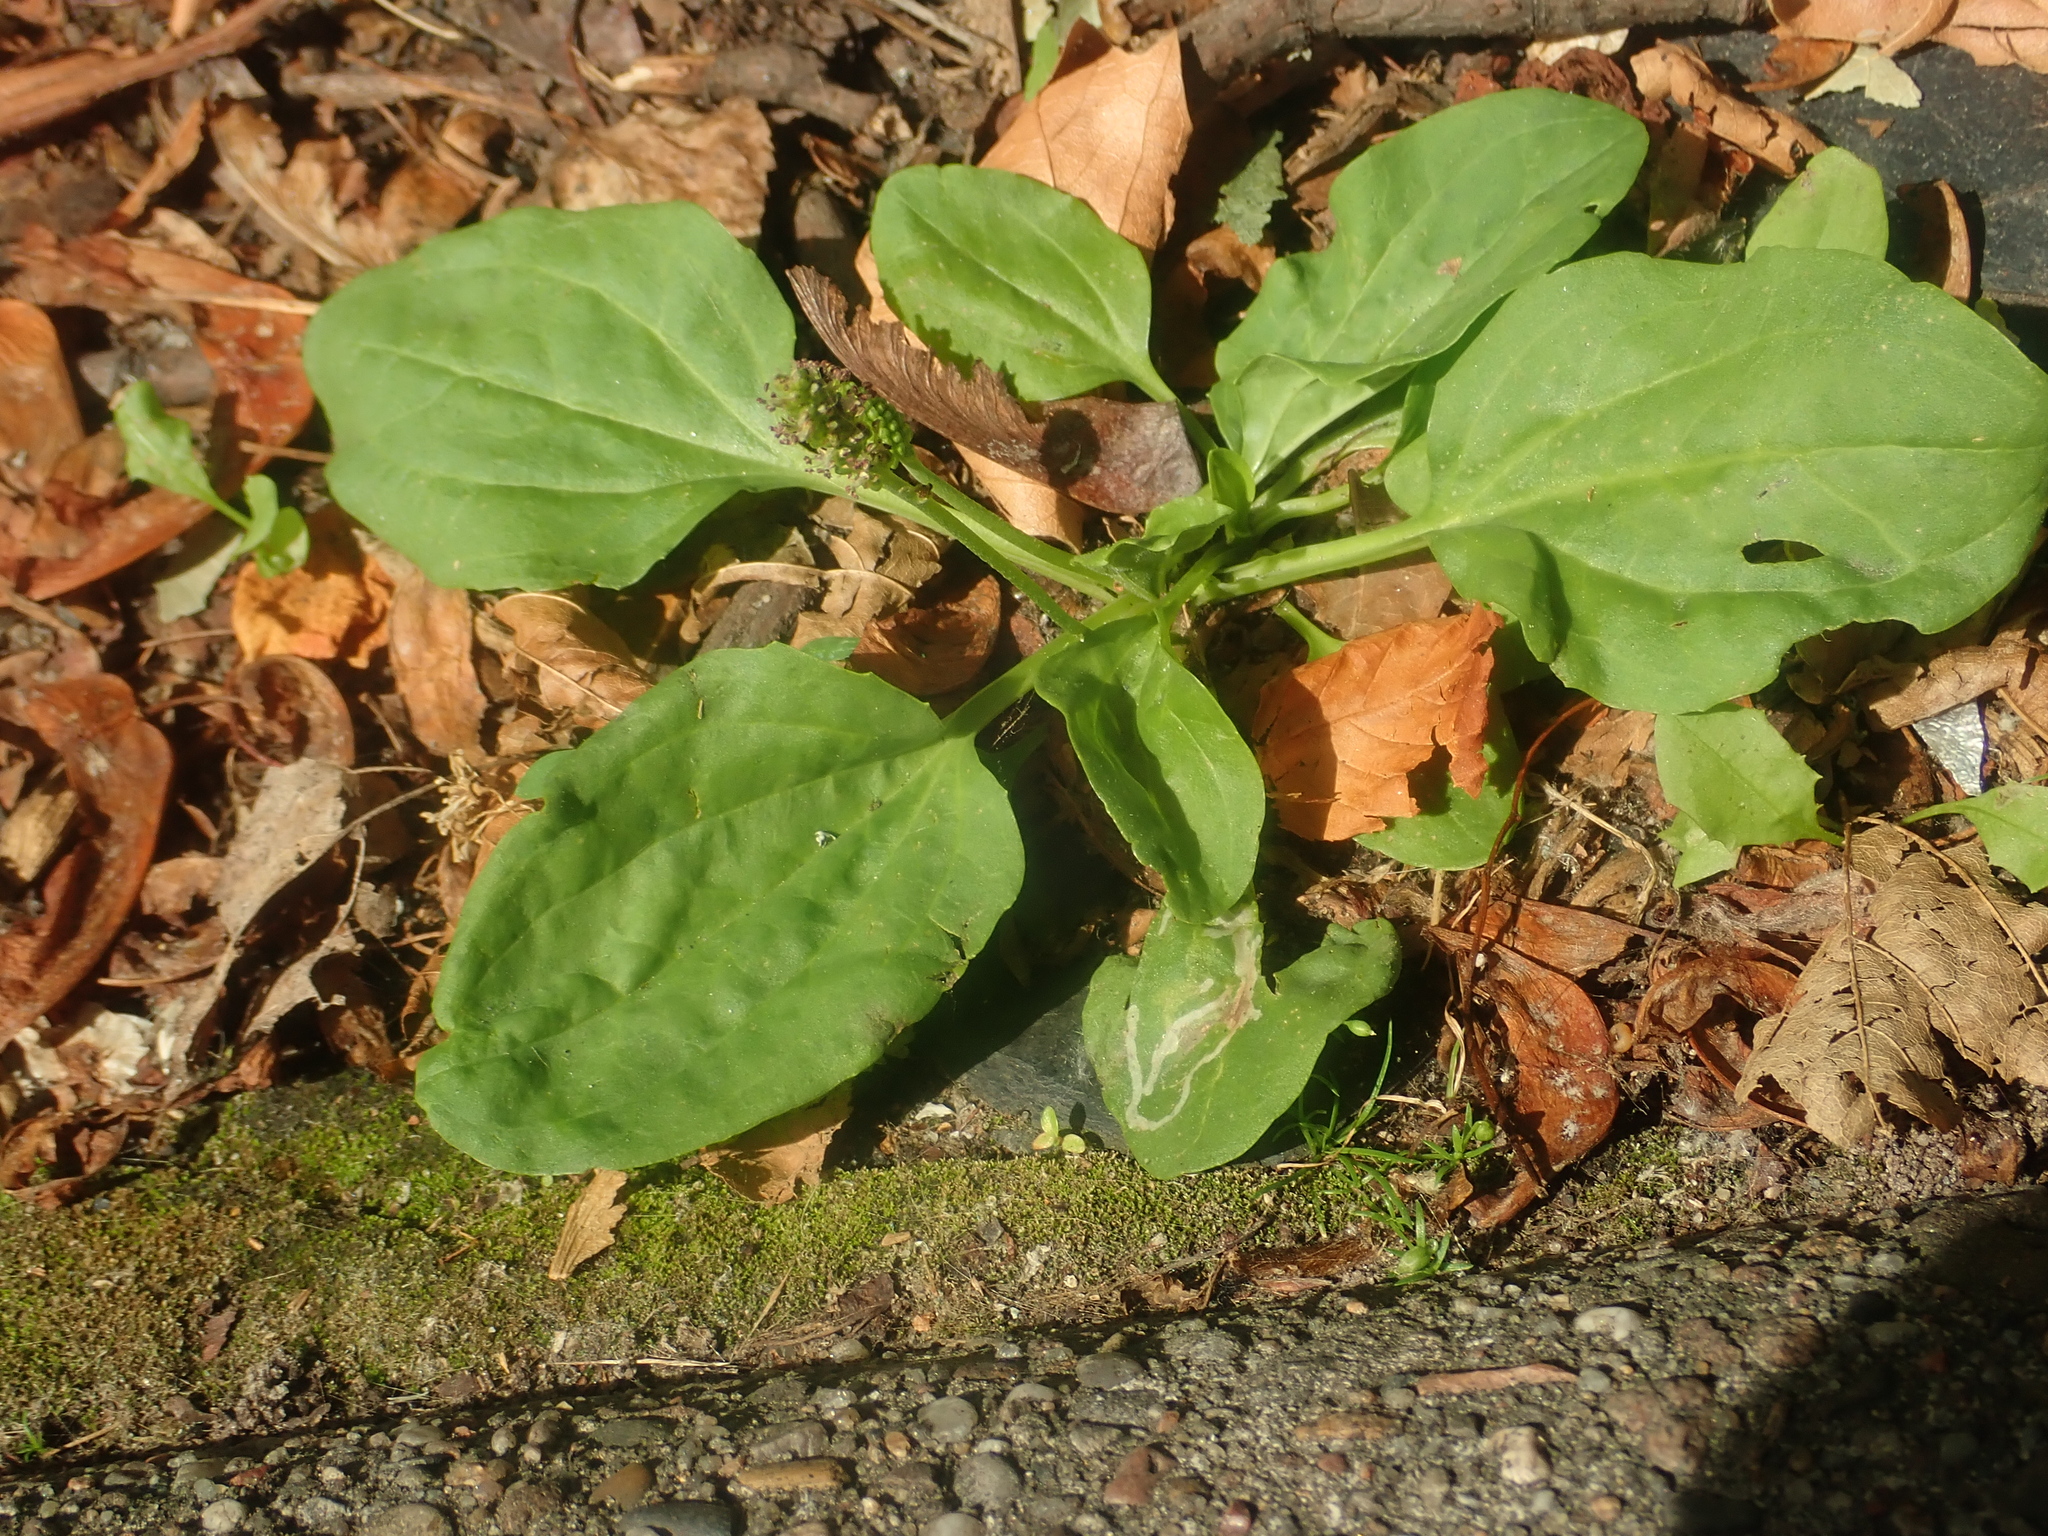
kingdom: Plantae
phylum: Tracheophyta
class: Magnoliopsida
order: Lamiales
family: Plantaginaceae
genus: Plantago
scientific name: Plantago major
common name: Common plantain
